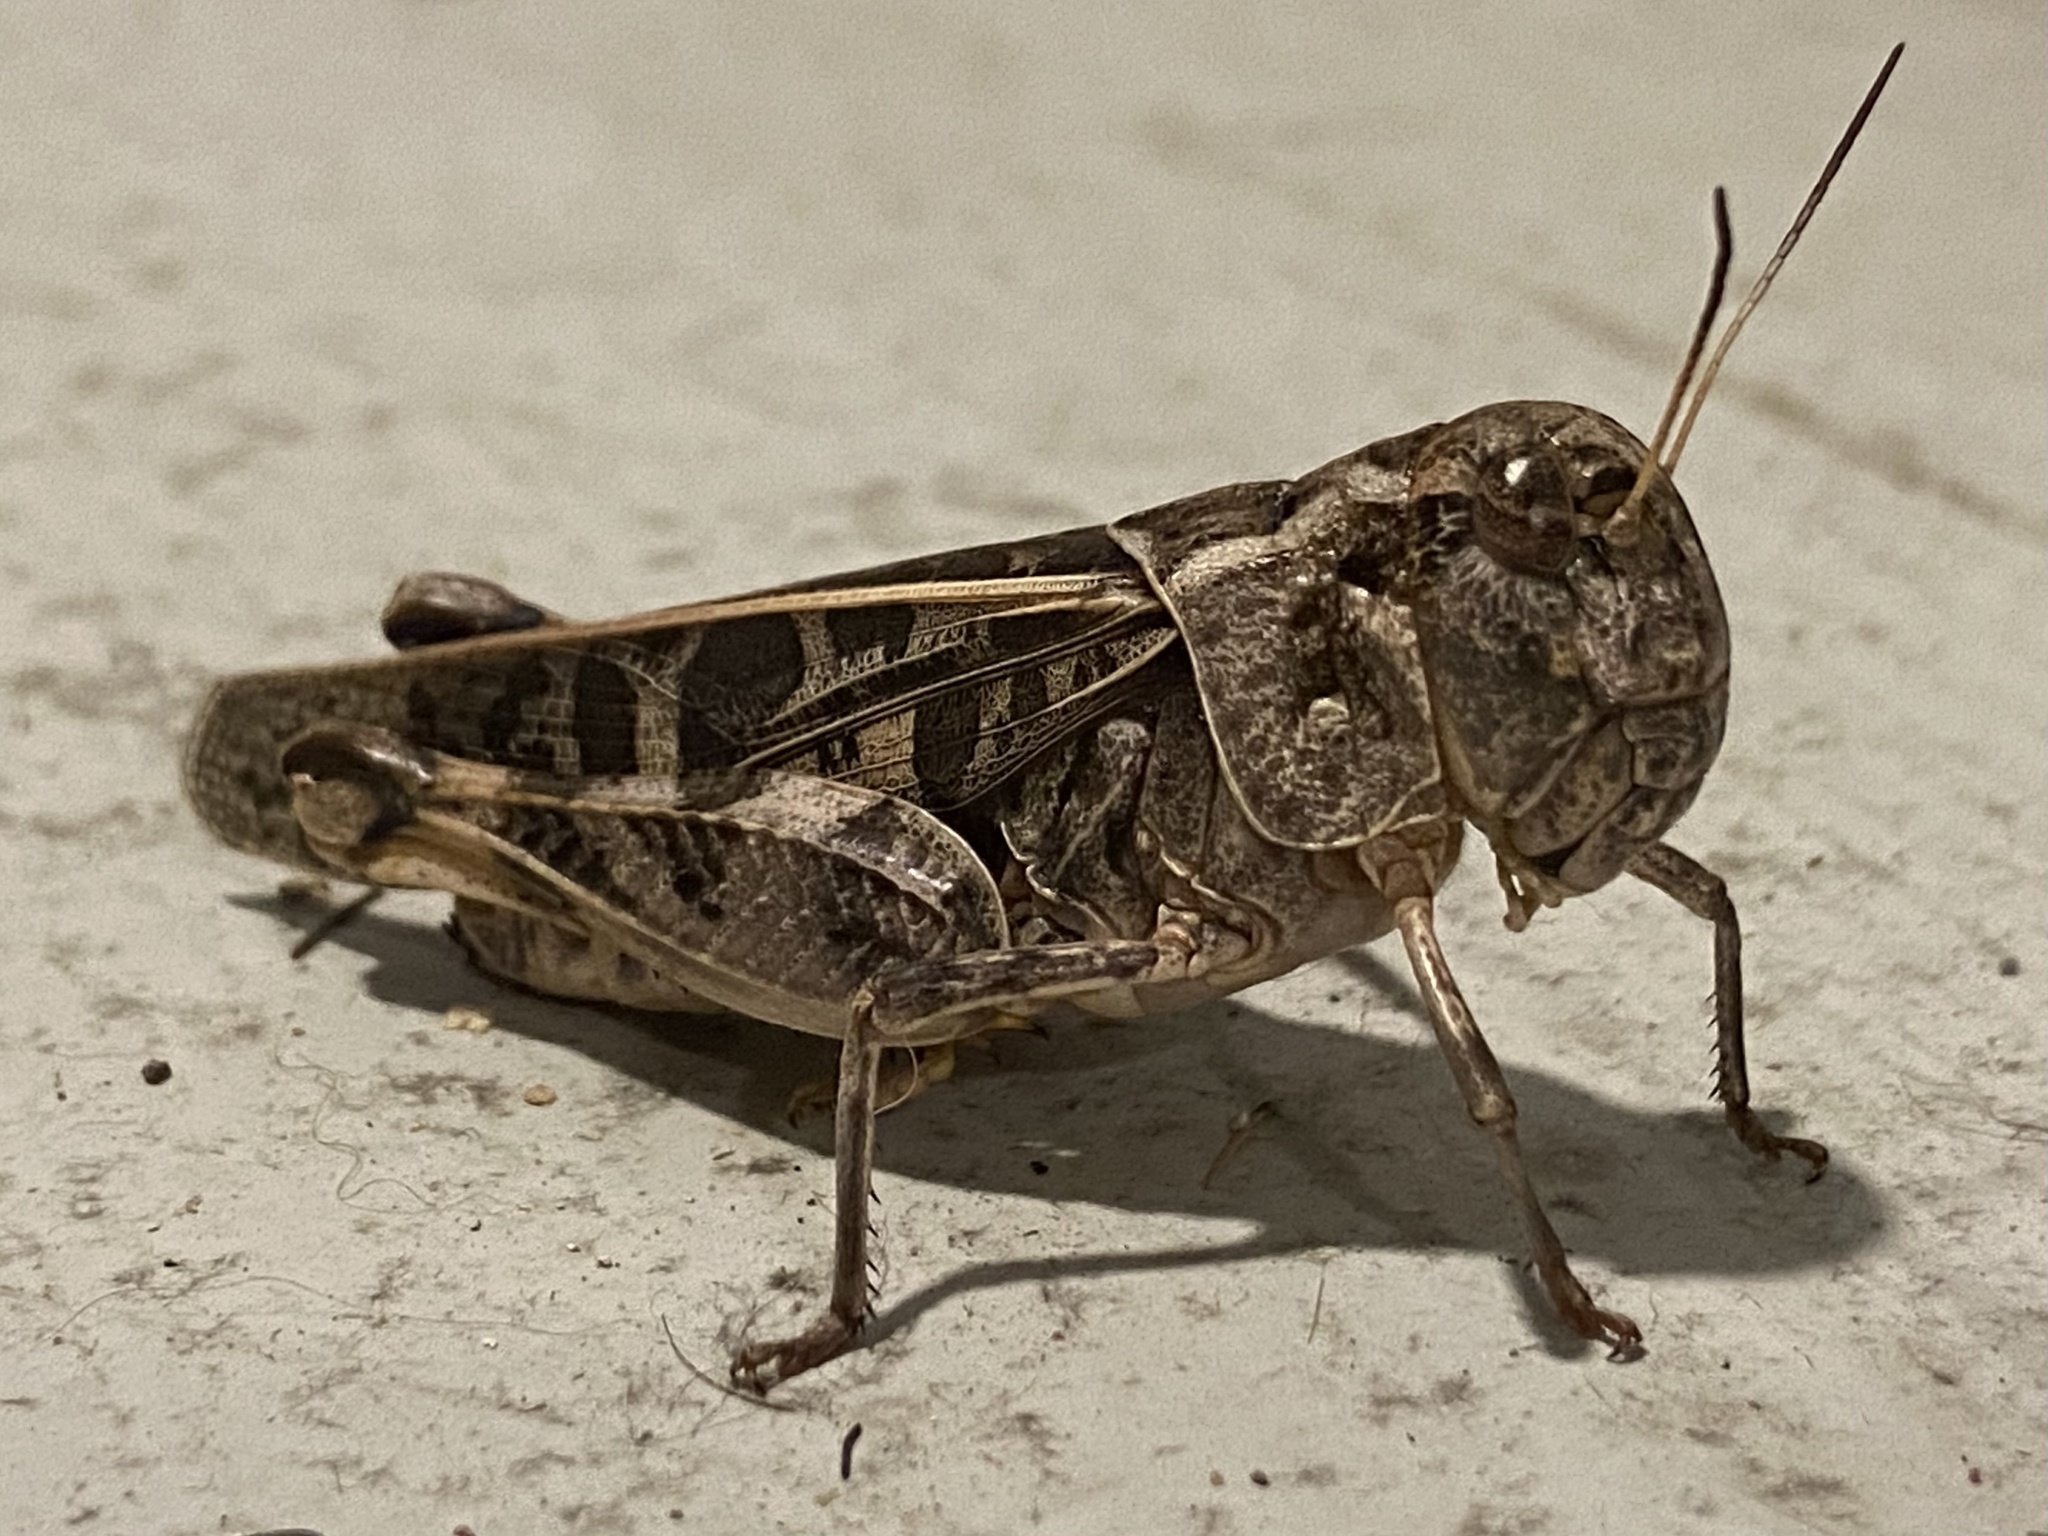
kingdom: Animalia
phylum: Arthropoda
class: Insecta
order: Orthoptera
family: Acrididae
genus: Hippiscus
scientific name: Hippiscus ocelote
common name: Wrinkled grasshopper
